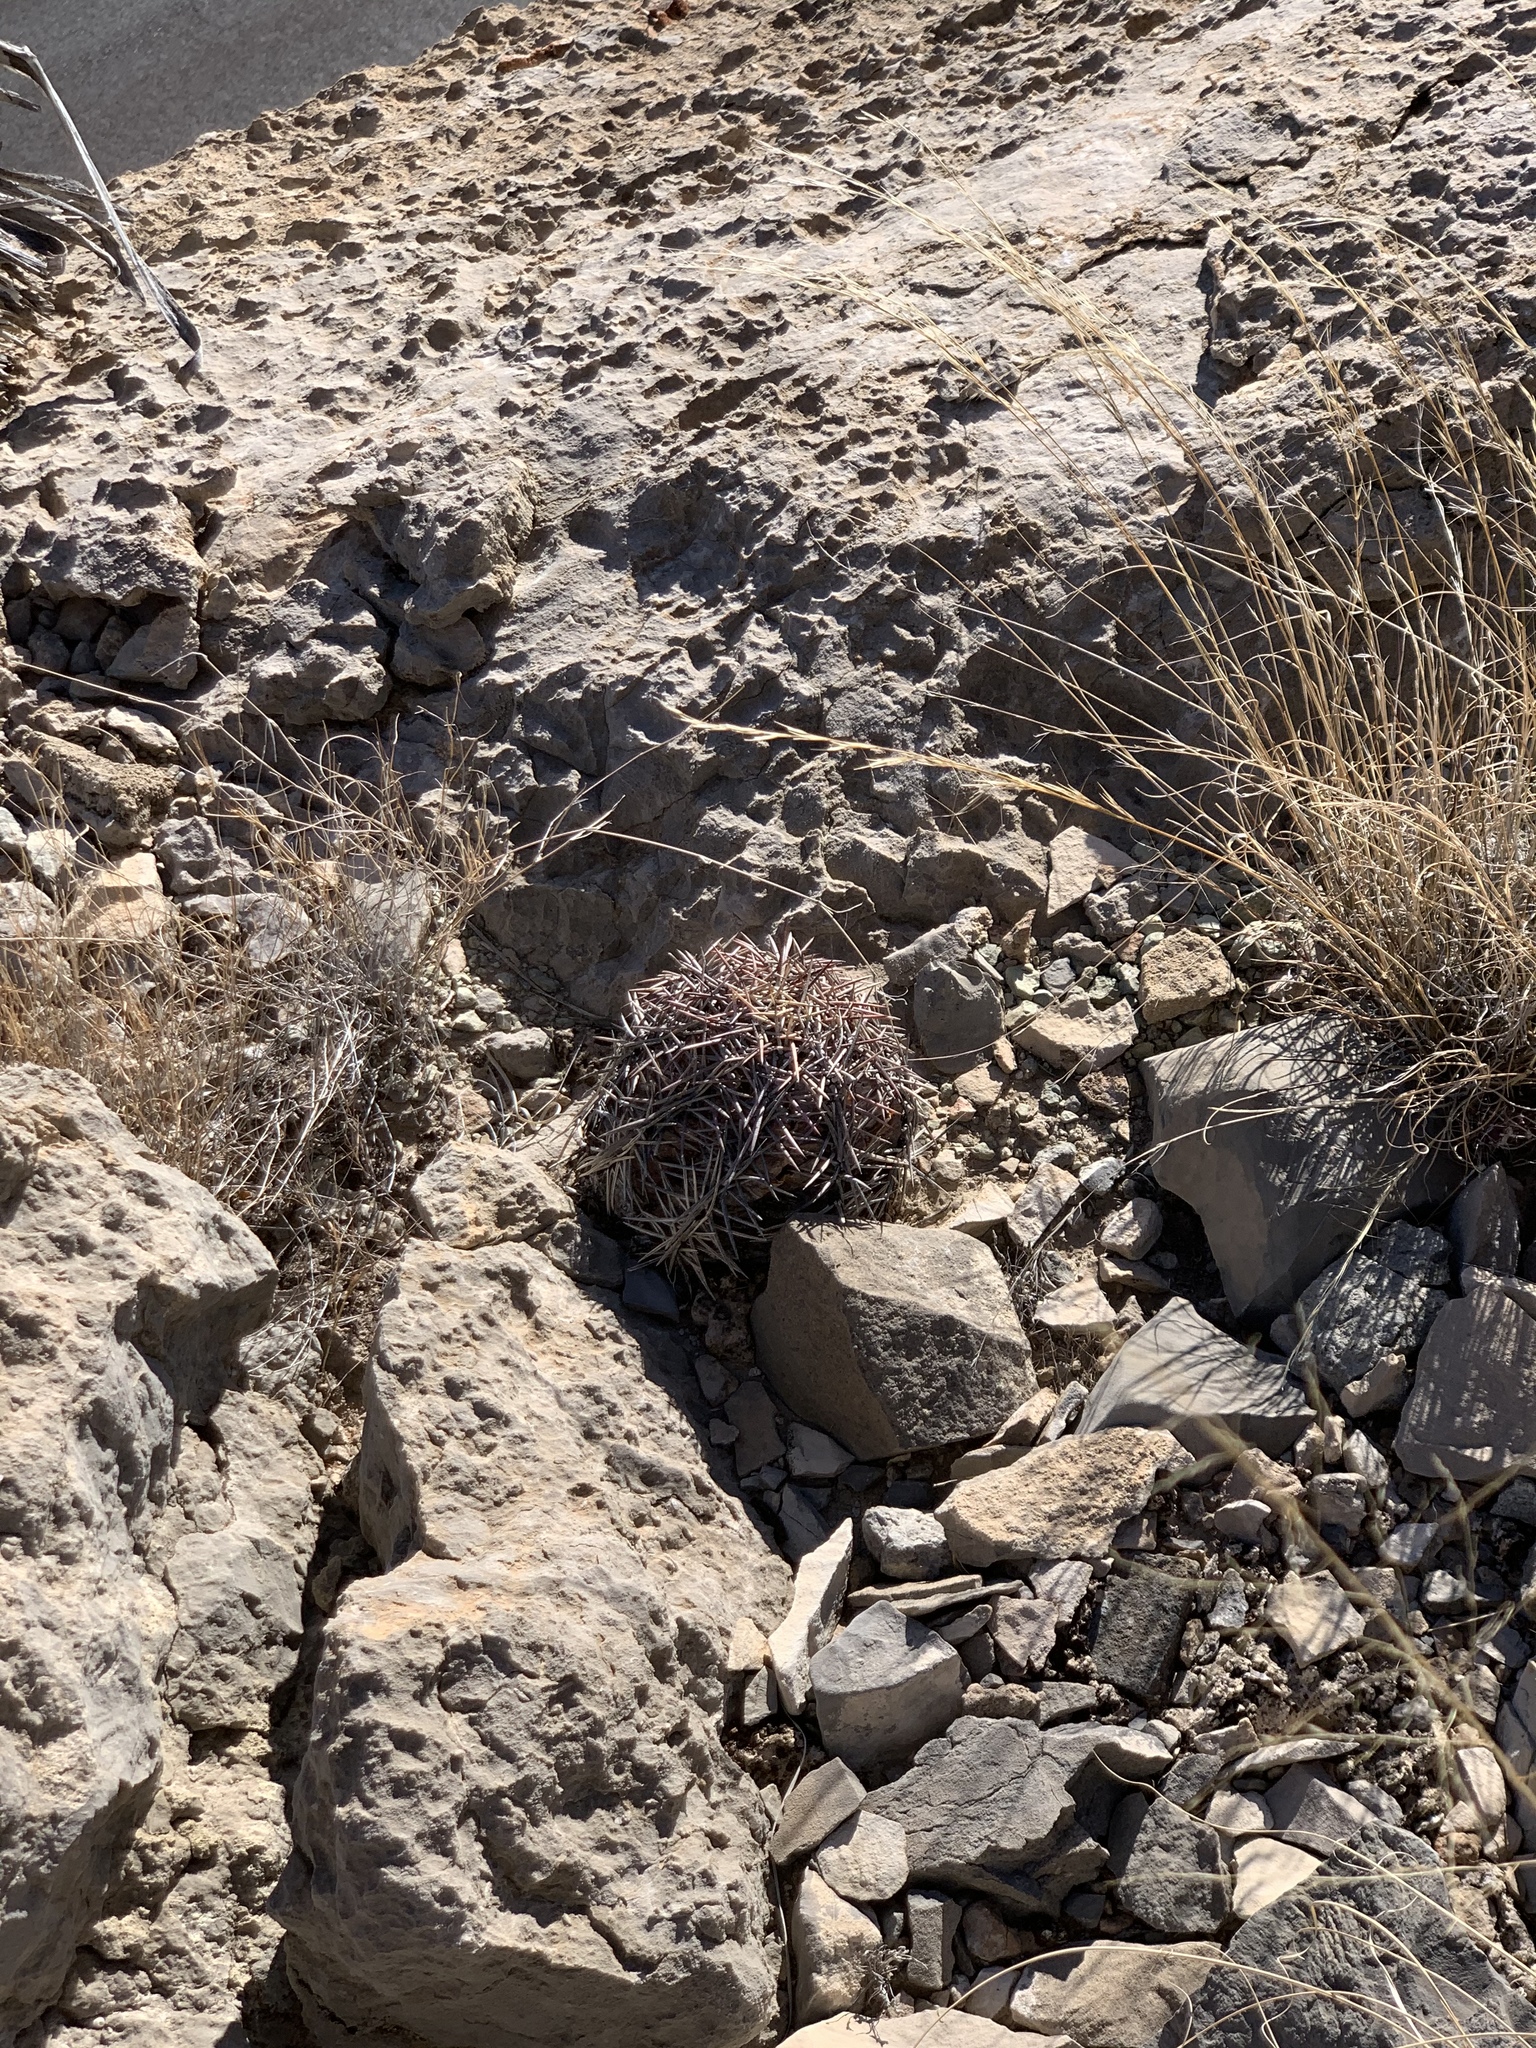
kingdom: Plantae
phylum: Tracheophyta
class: Magnoliopsida
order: Caryophyllales
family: Cactaceae
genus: Echinocactus
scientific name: Echinocactus horizonthalonius
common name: Devilshead
